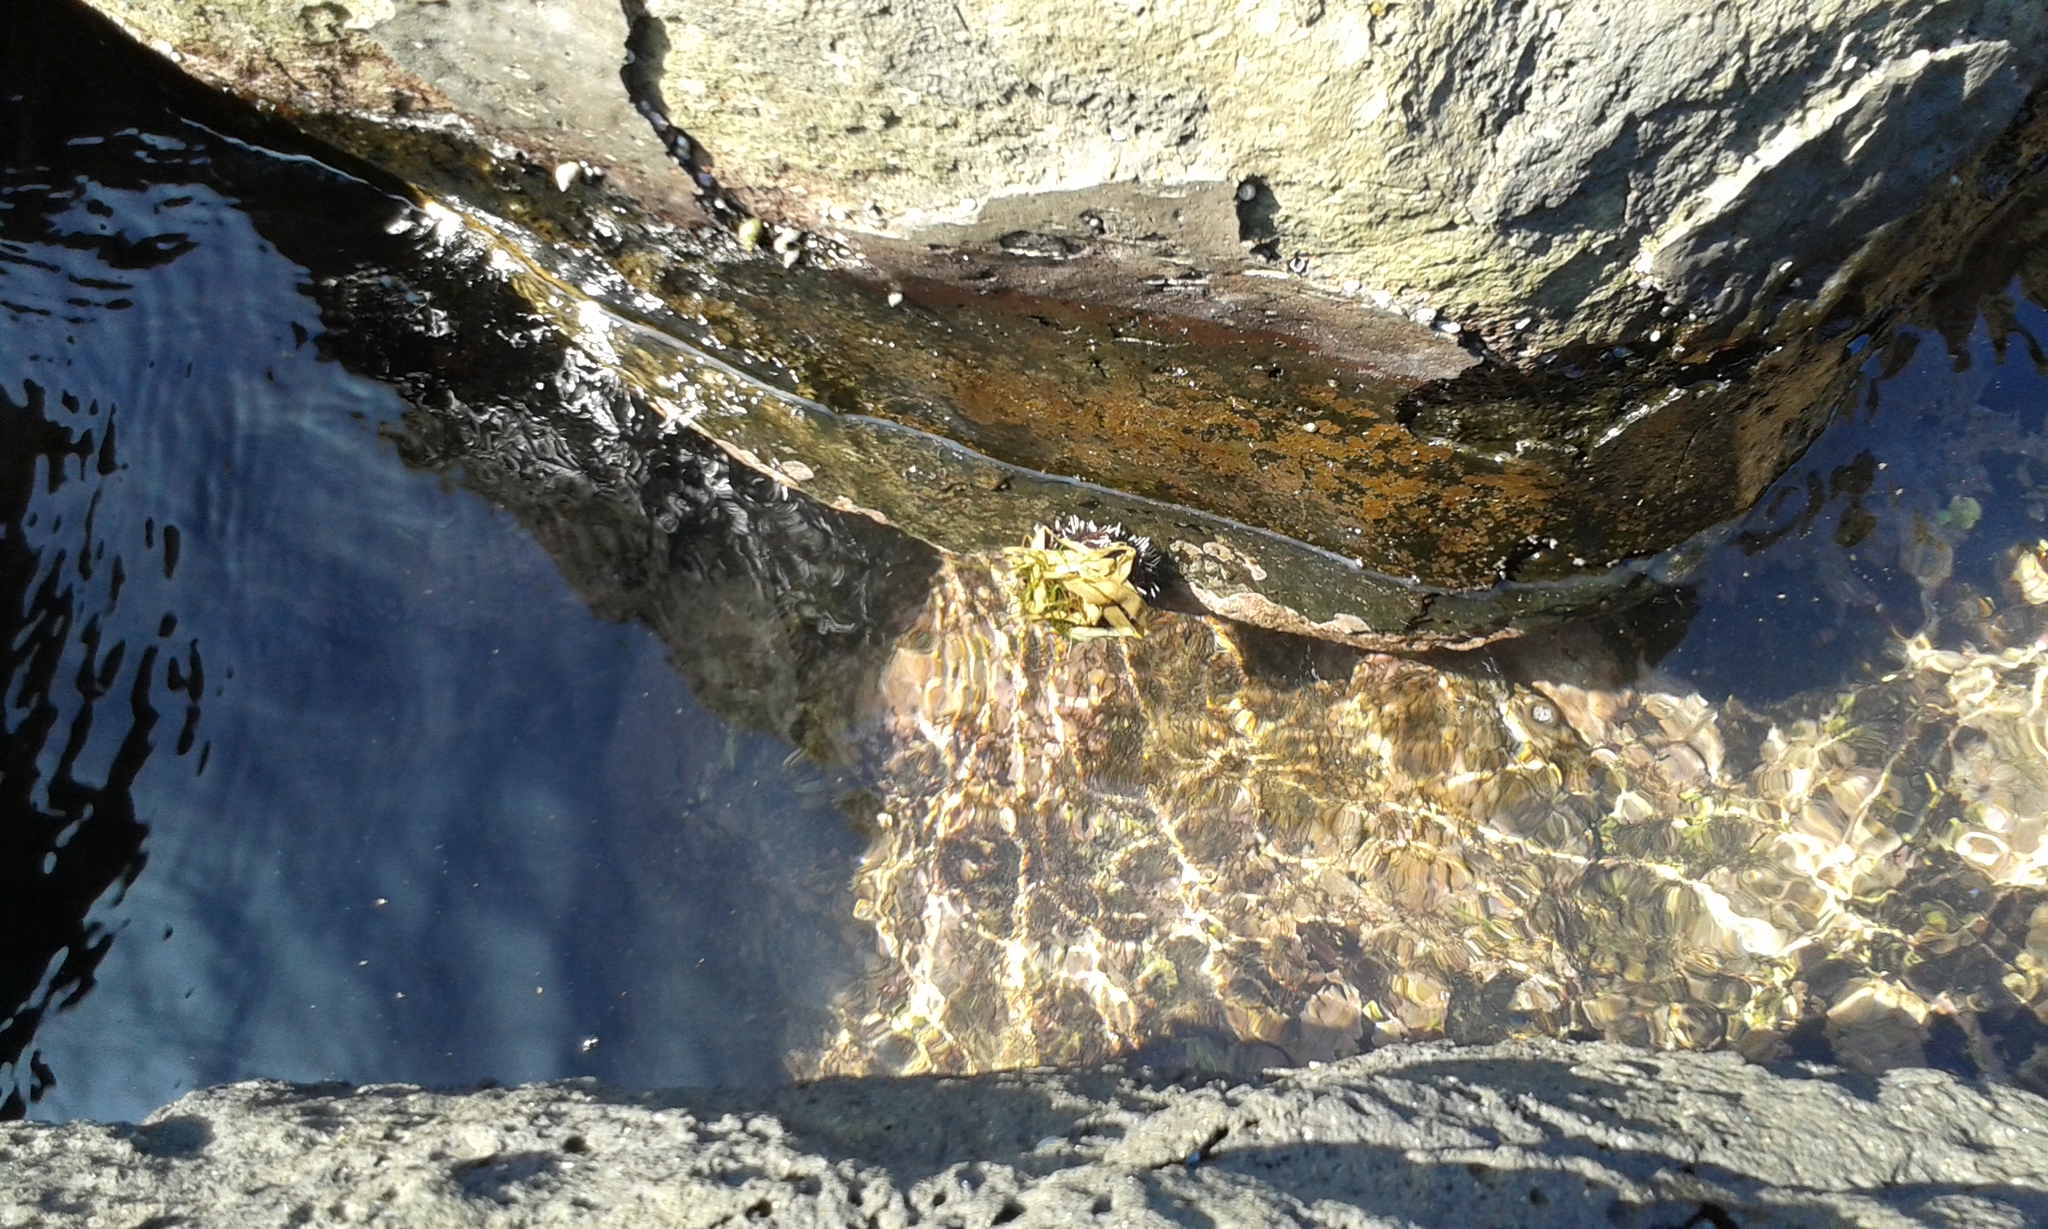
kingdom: Animalia
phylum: Echinodermata
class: Echinoidea
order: Camarodonta
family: Toxopneustidae
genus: Tripneustes
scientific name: Tripneustes gratilla
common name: Bischofsmützenseeigel
